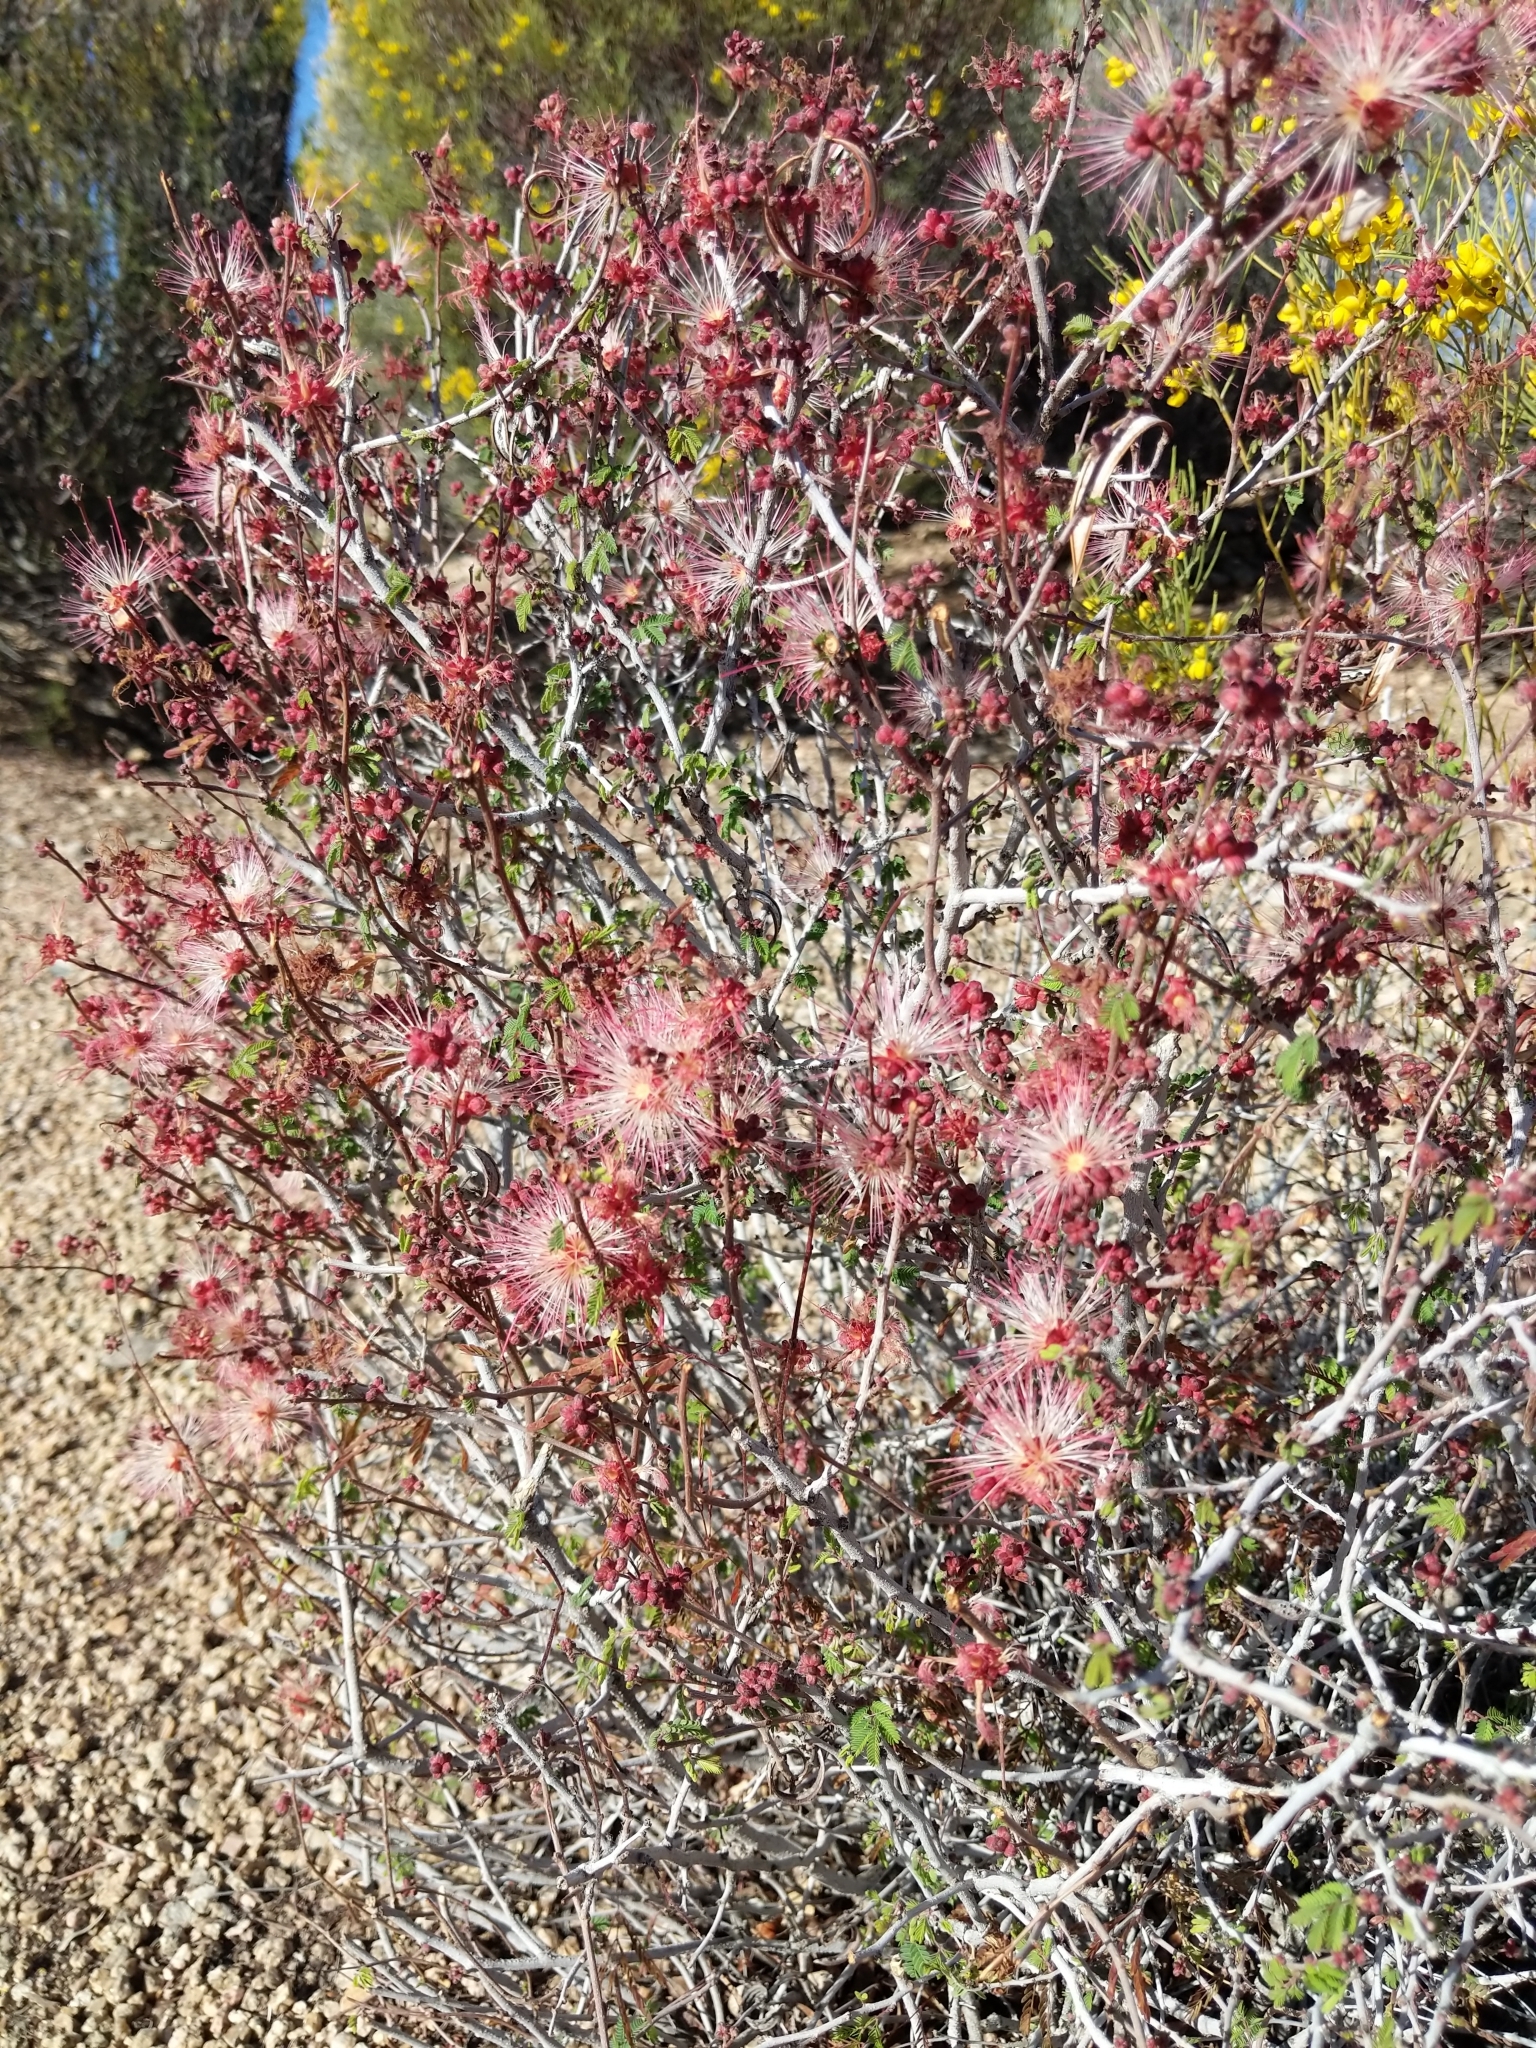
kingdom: Plantae
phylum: Tracheophyta
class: Magnoliopsida
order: Fabales
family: Fabaceae
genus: Calliandra
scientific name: Calliandra eriophylla
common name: Fairy-duster
